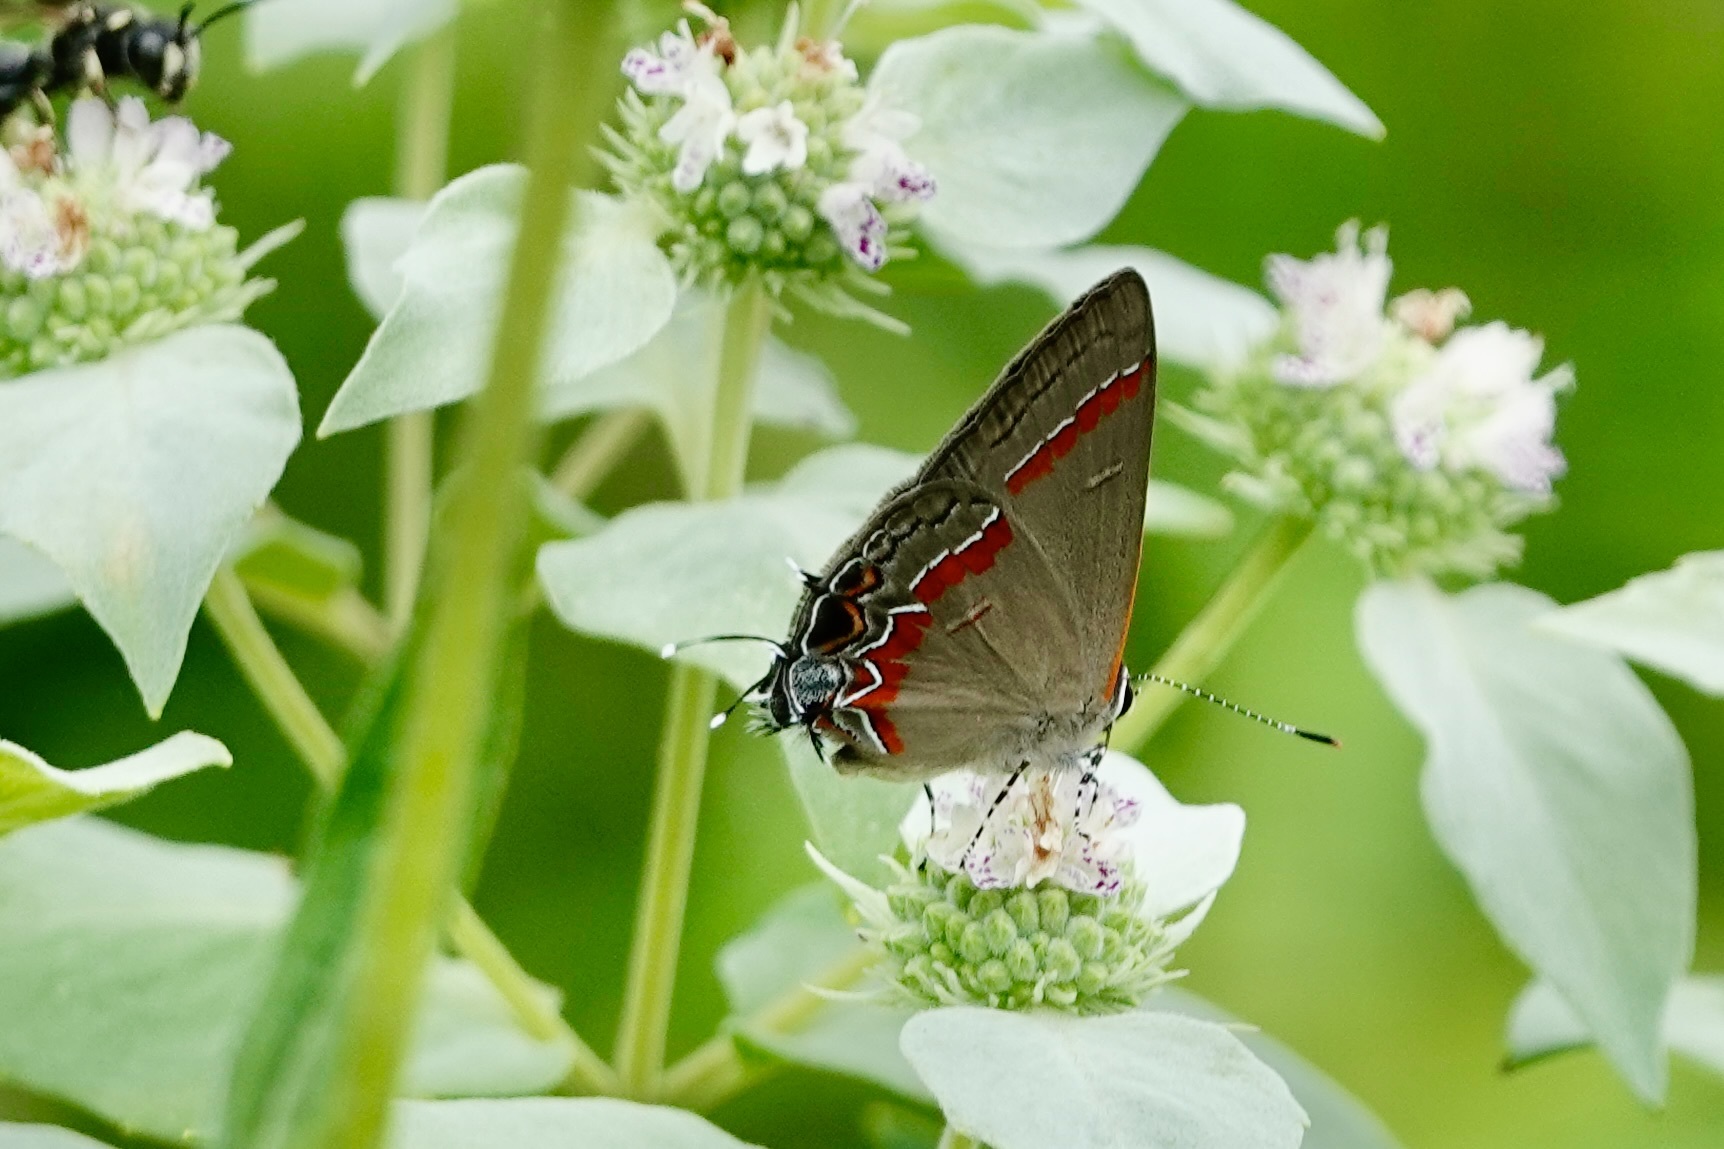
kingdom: Animalia
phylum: Arthropoda
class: Insecta
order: Lepidoptera
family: Lycaenidae
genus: Calycopis
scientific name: Calycopis cecrops
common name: Red-banded hairstreak
